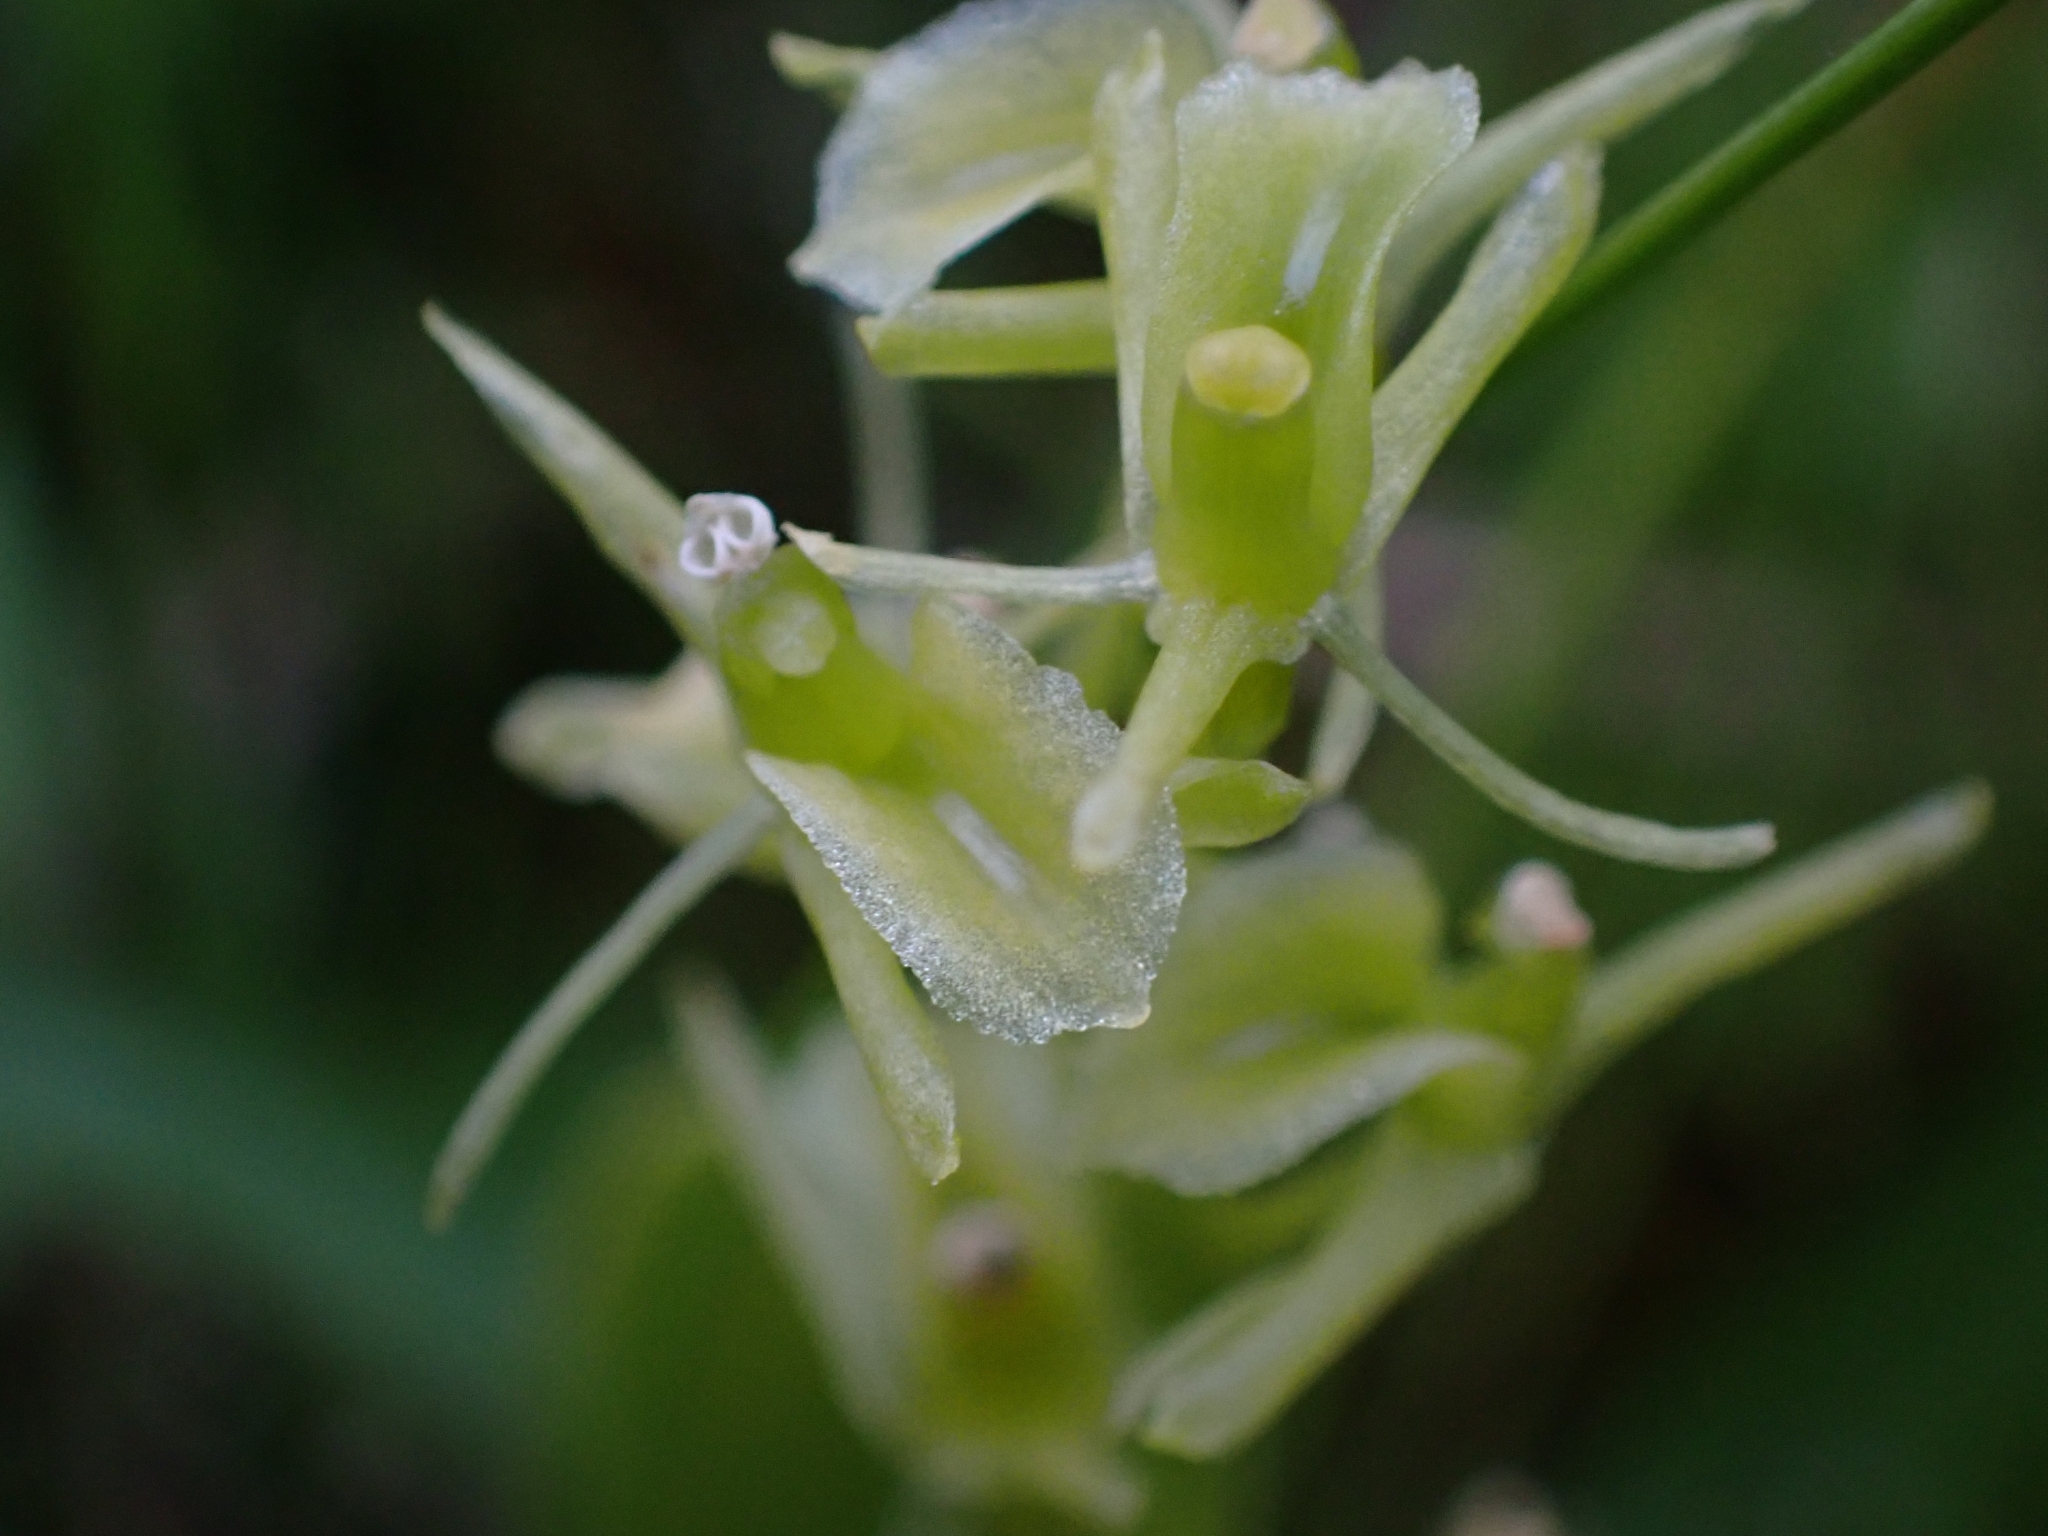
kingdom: Animalia
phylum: Arthropoda
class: Insecta
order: Coleoptera
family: Curculionidae
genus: Liparis
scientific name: Liparis loeselii
